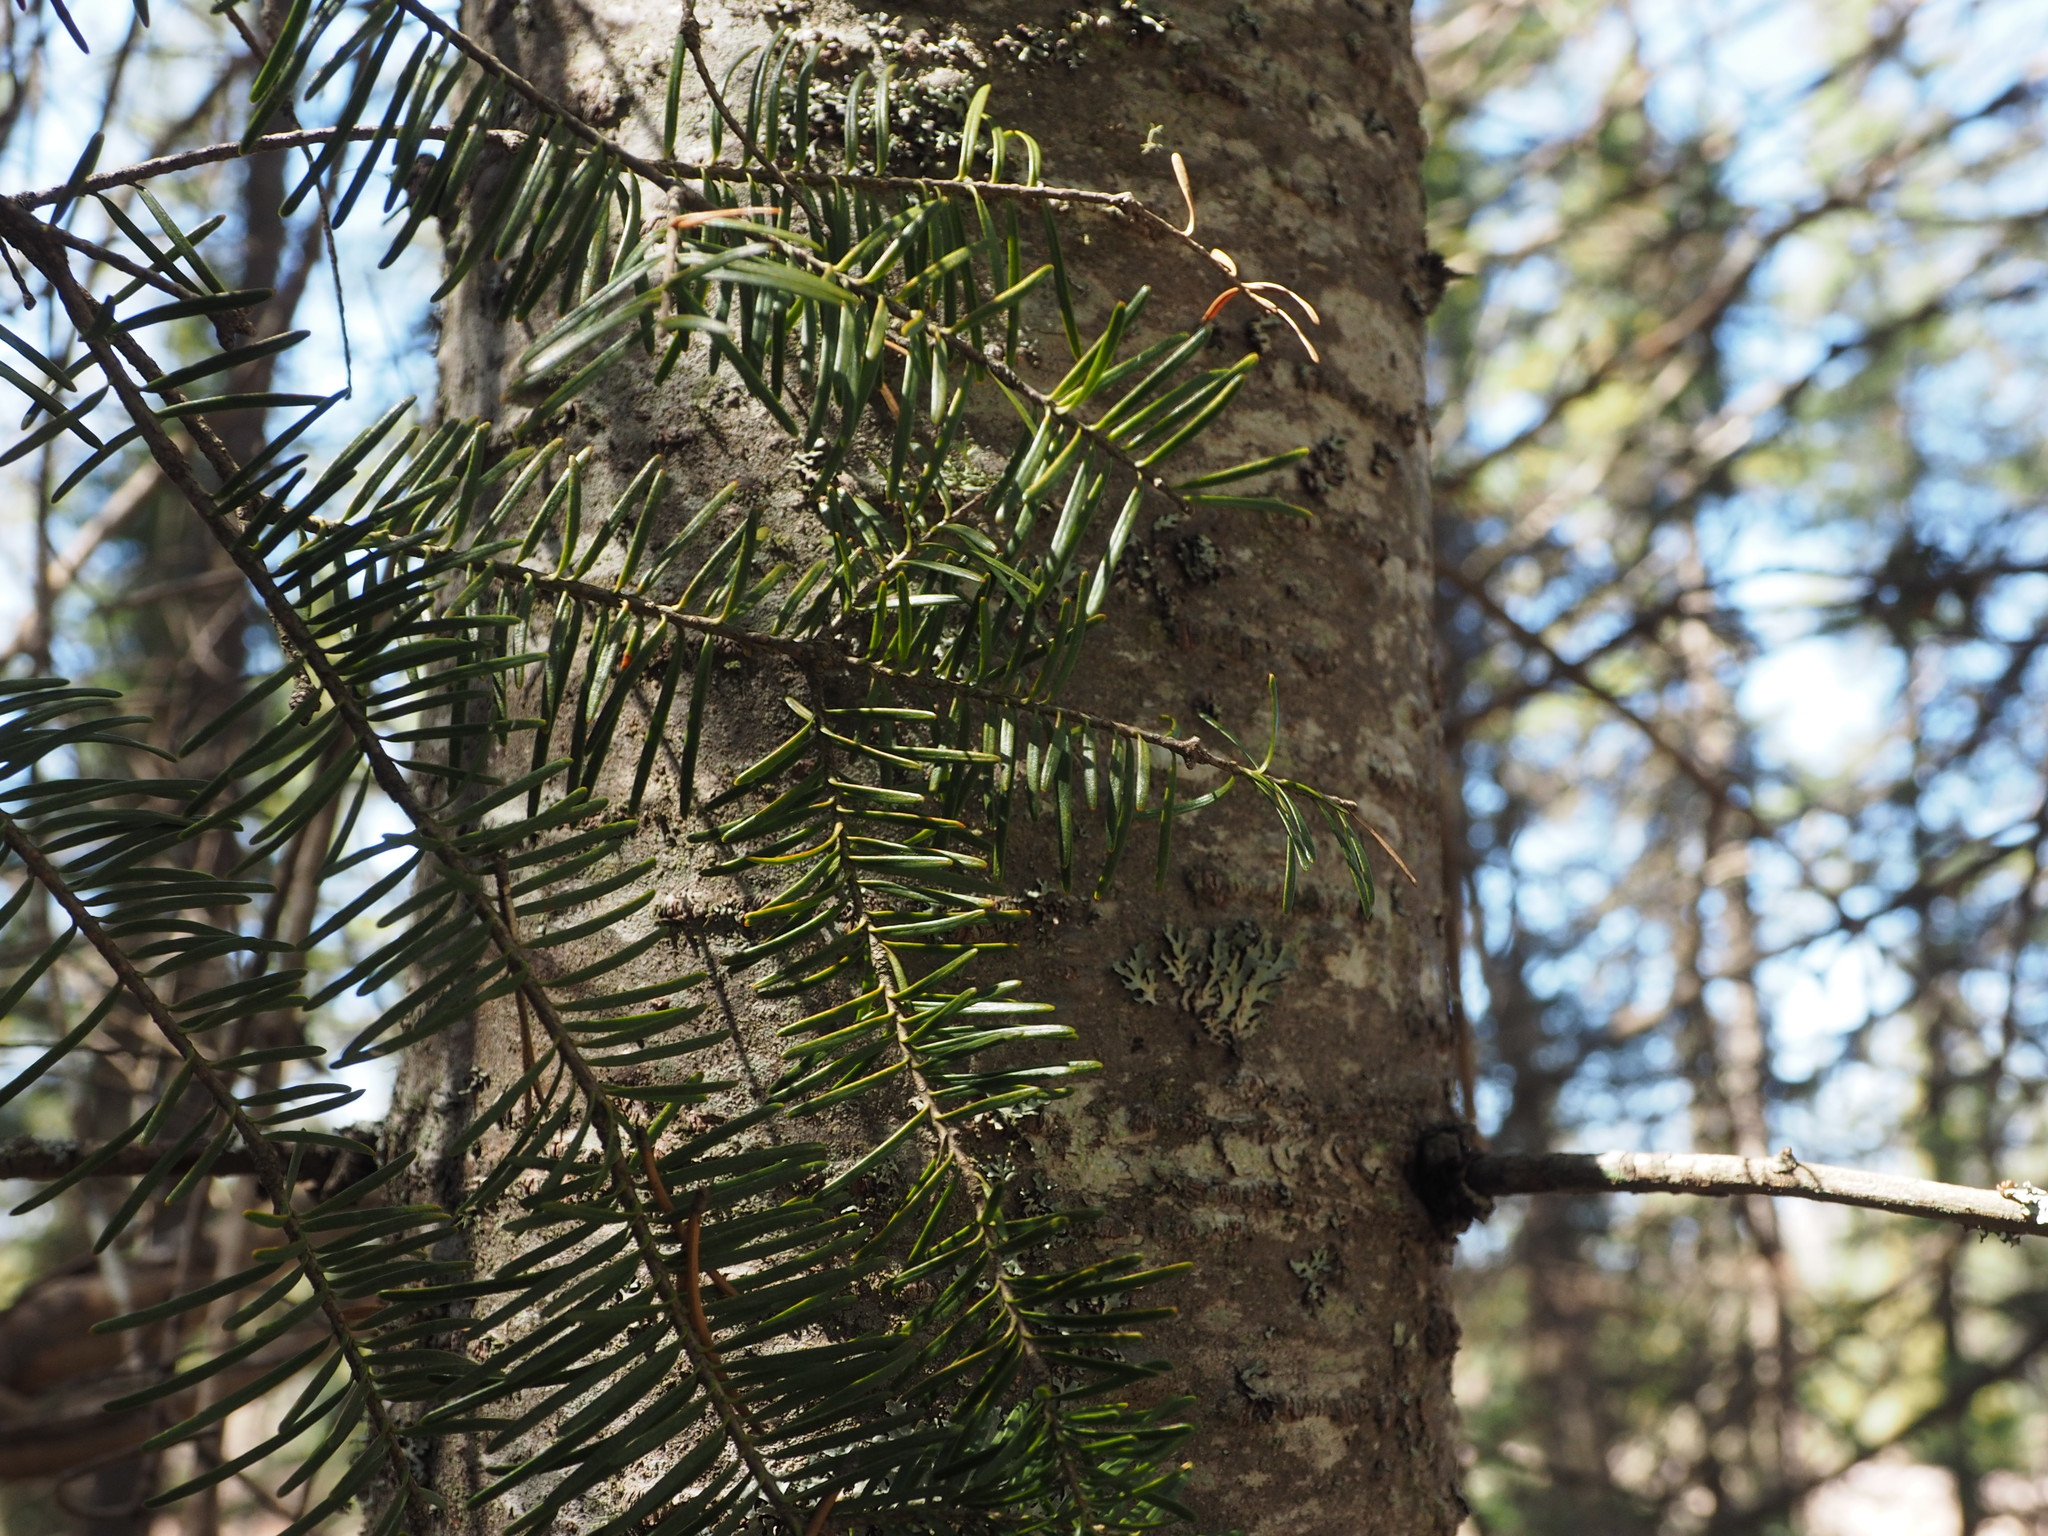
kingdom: Plantae
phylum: Tracheophyta
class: Pinopsida
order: Pinales
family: Pinaceae
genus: Abies
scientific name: Abies balsamea
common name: Balsam fir
